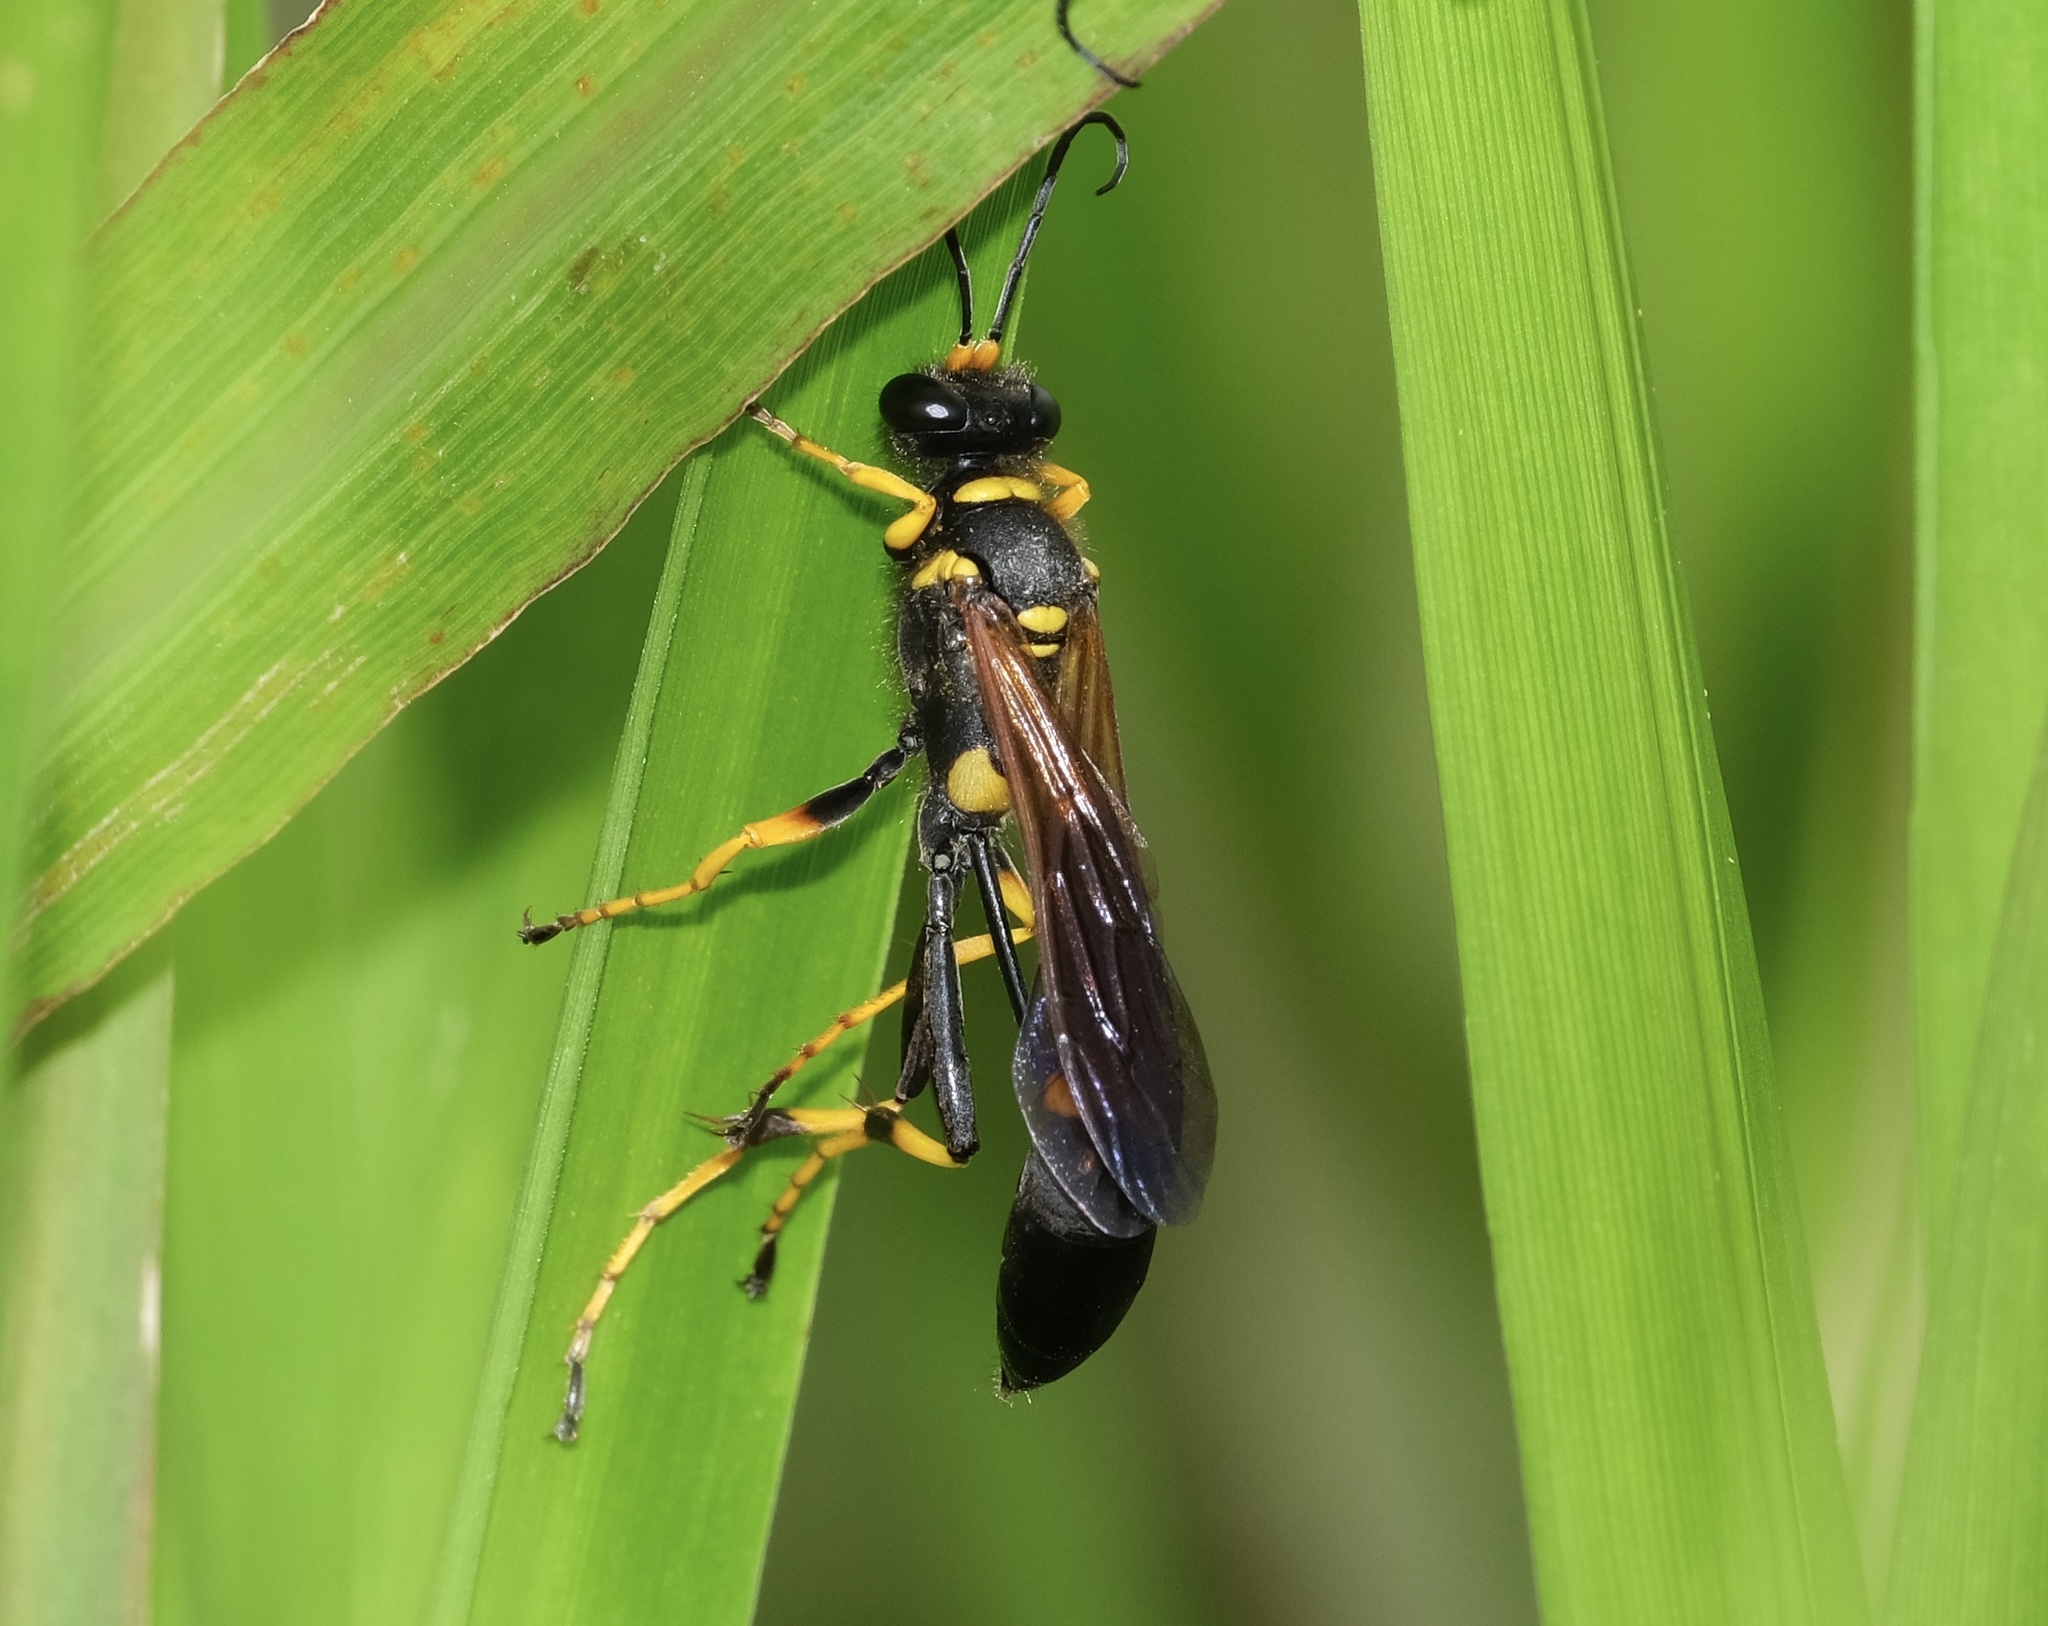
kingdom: Animalia
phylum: Arthropoda
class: Insecta
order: Hymenoptera
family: Sphecidae
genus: Sceliphron
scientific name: Sceliphron caementarium
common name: Mud dauber
